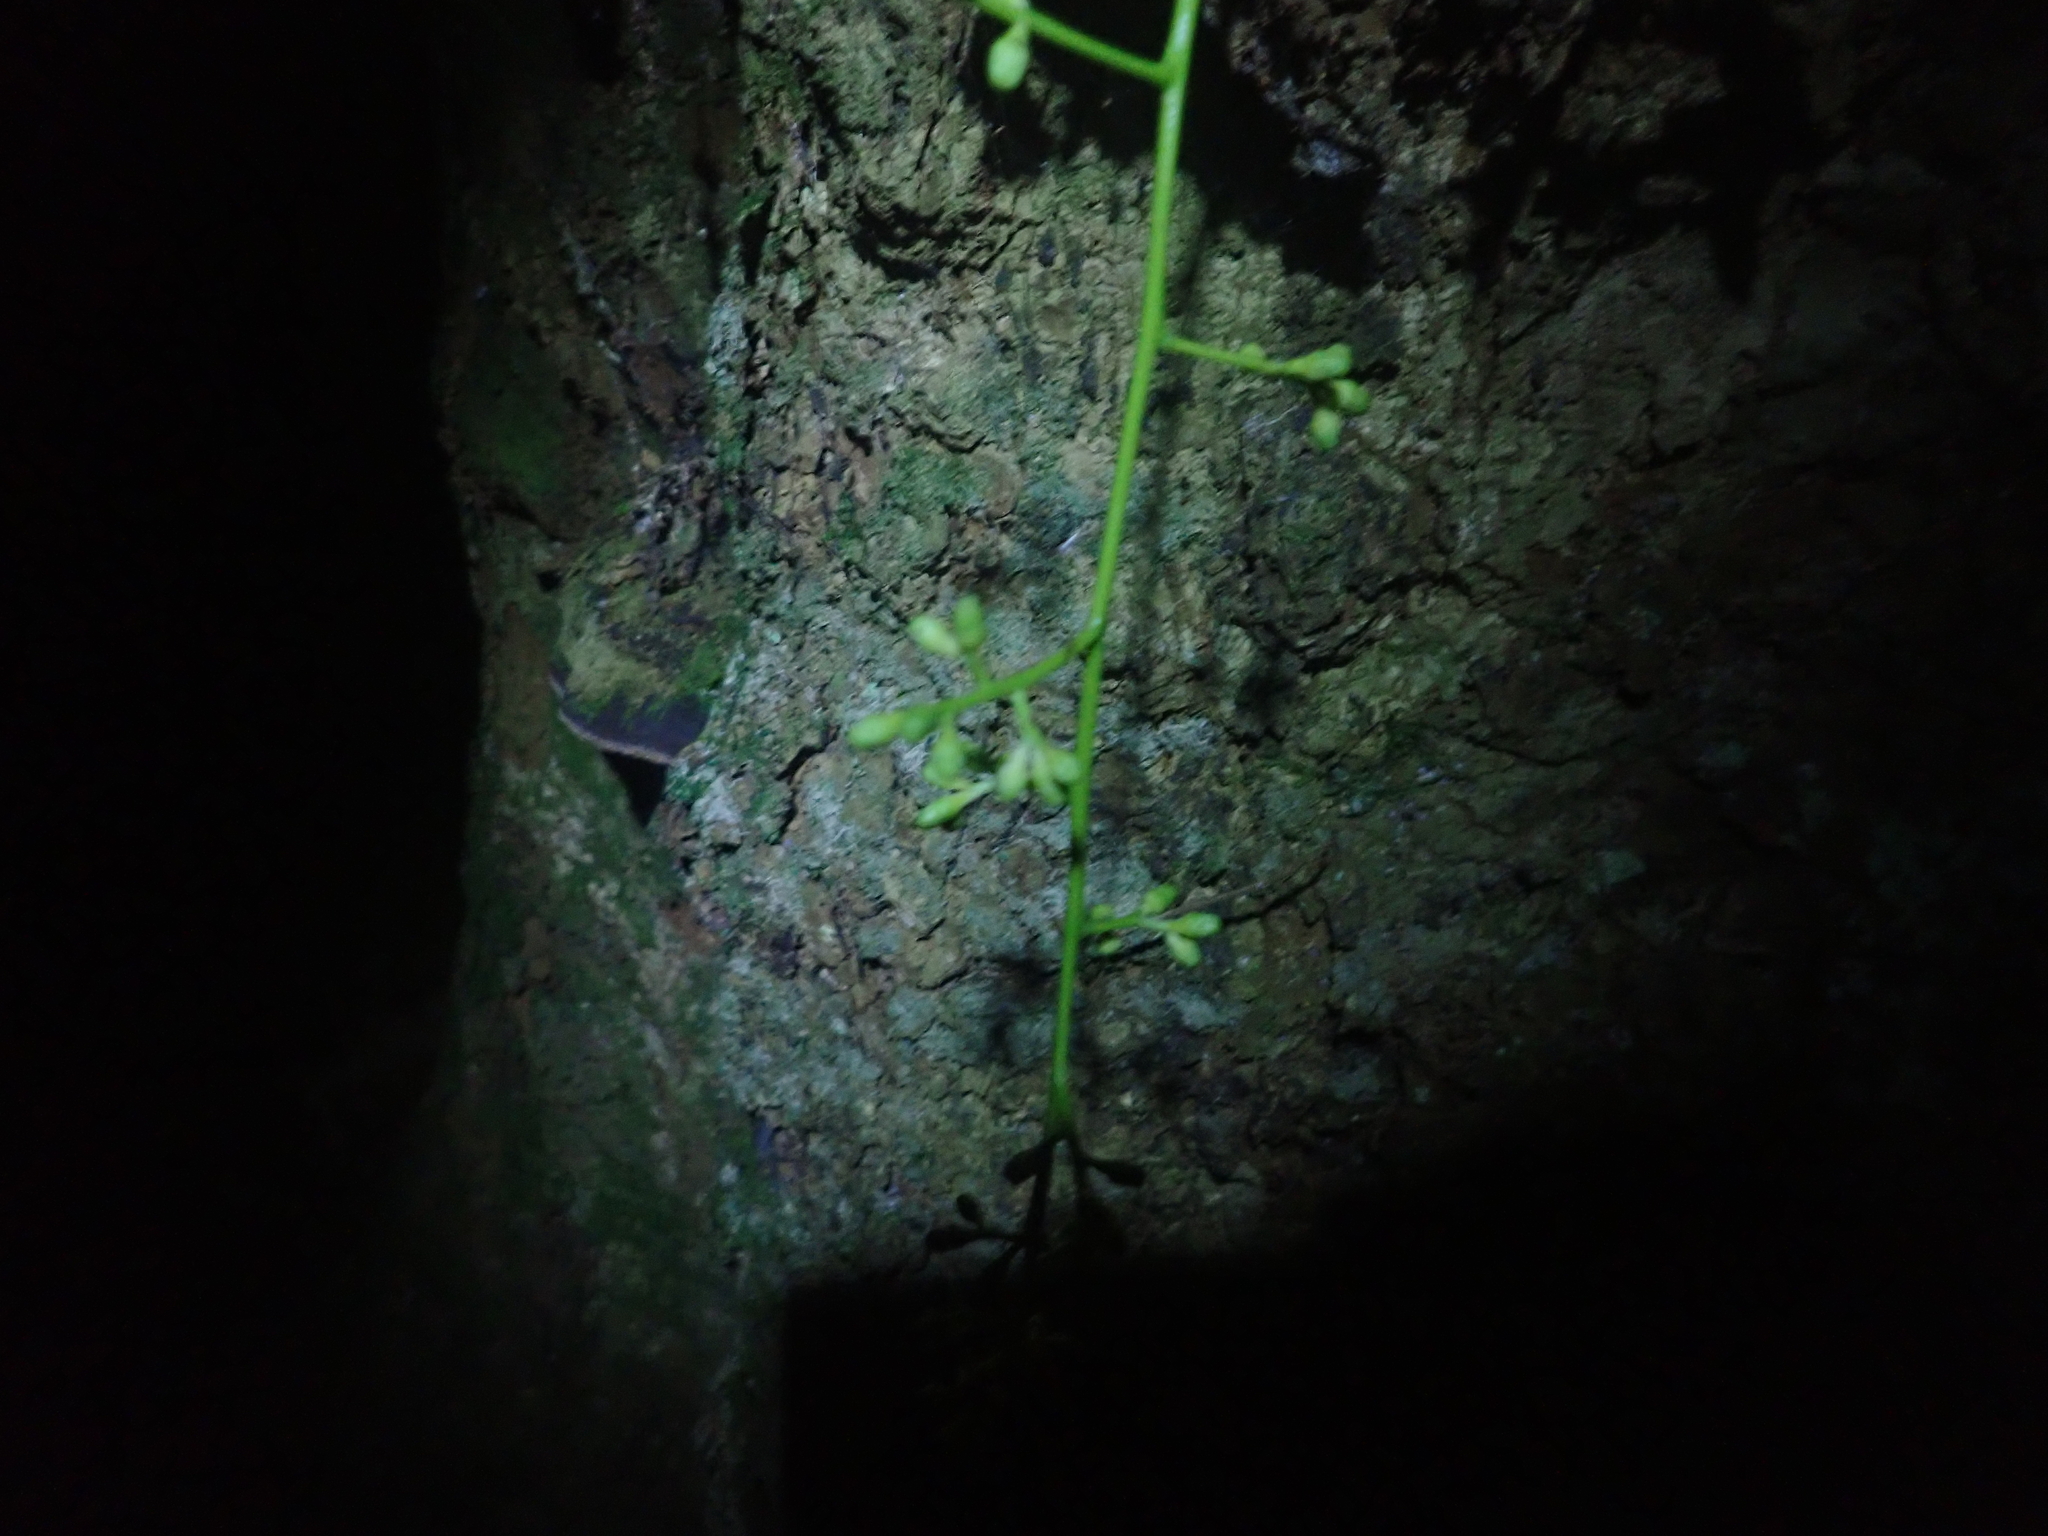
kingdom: Plantae
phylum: Tracheophyta
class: Magnoliopsida
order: Sapindales
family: Meliaceae
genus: Didymocheton
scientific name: Didymocheton spectabilis
